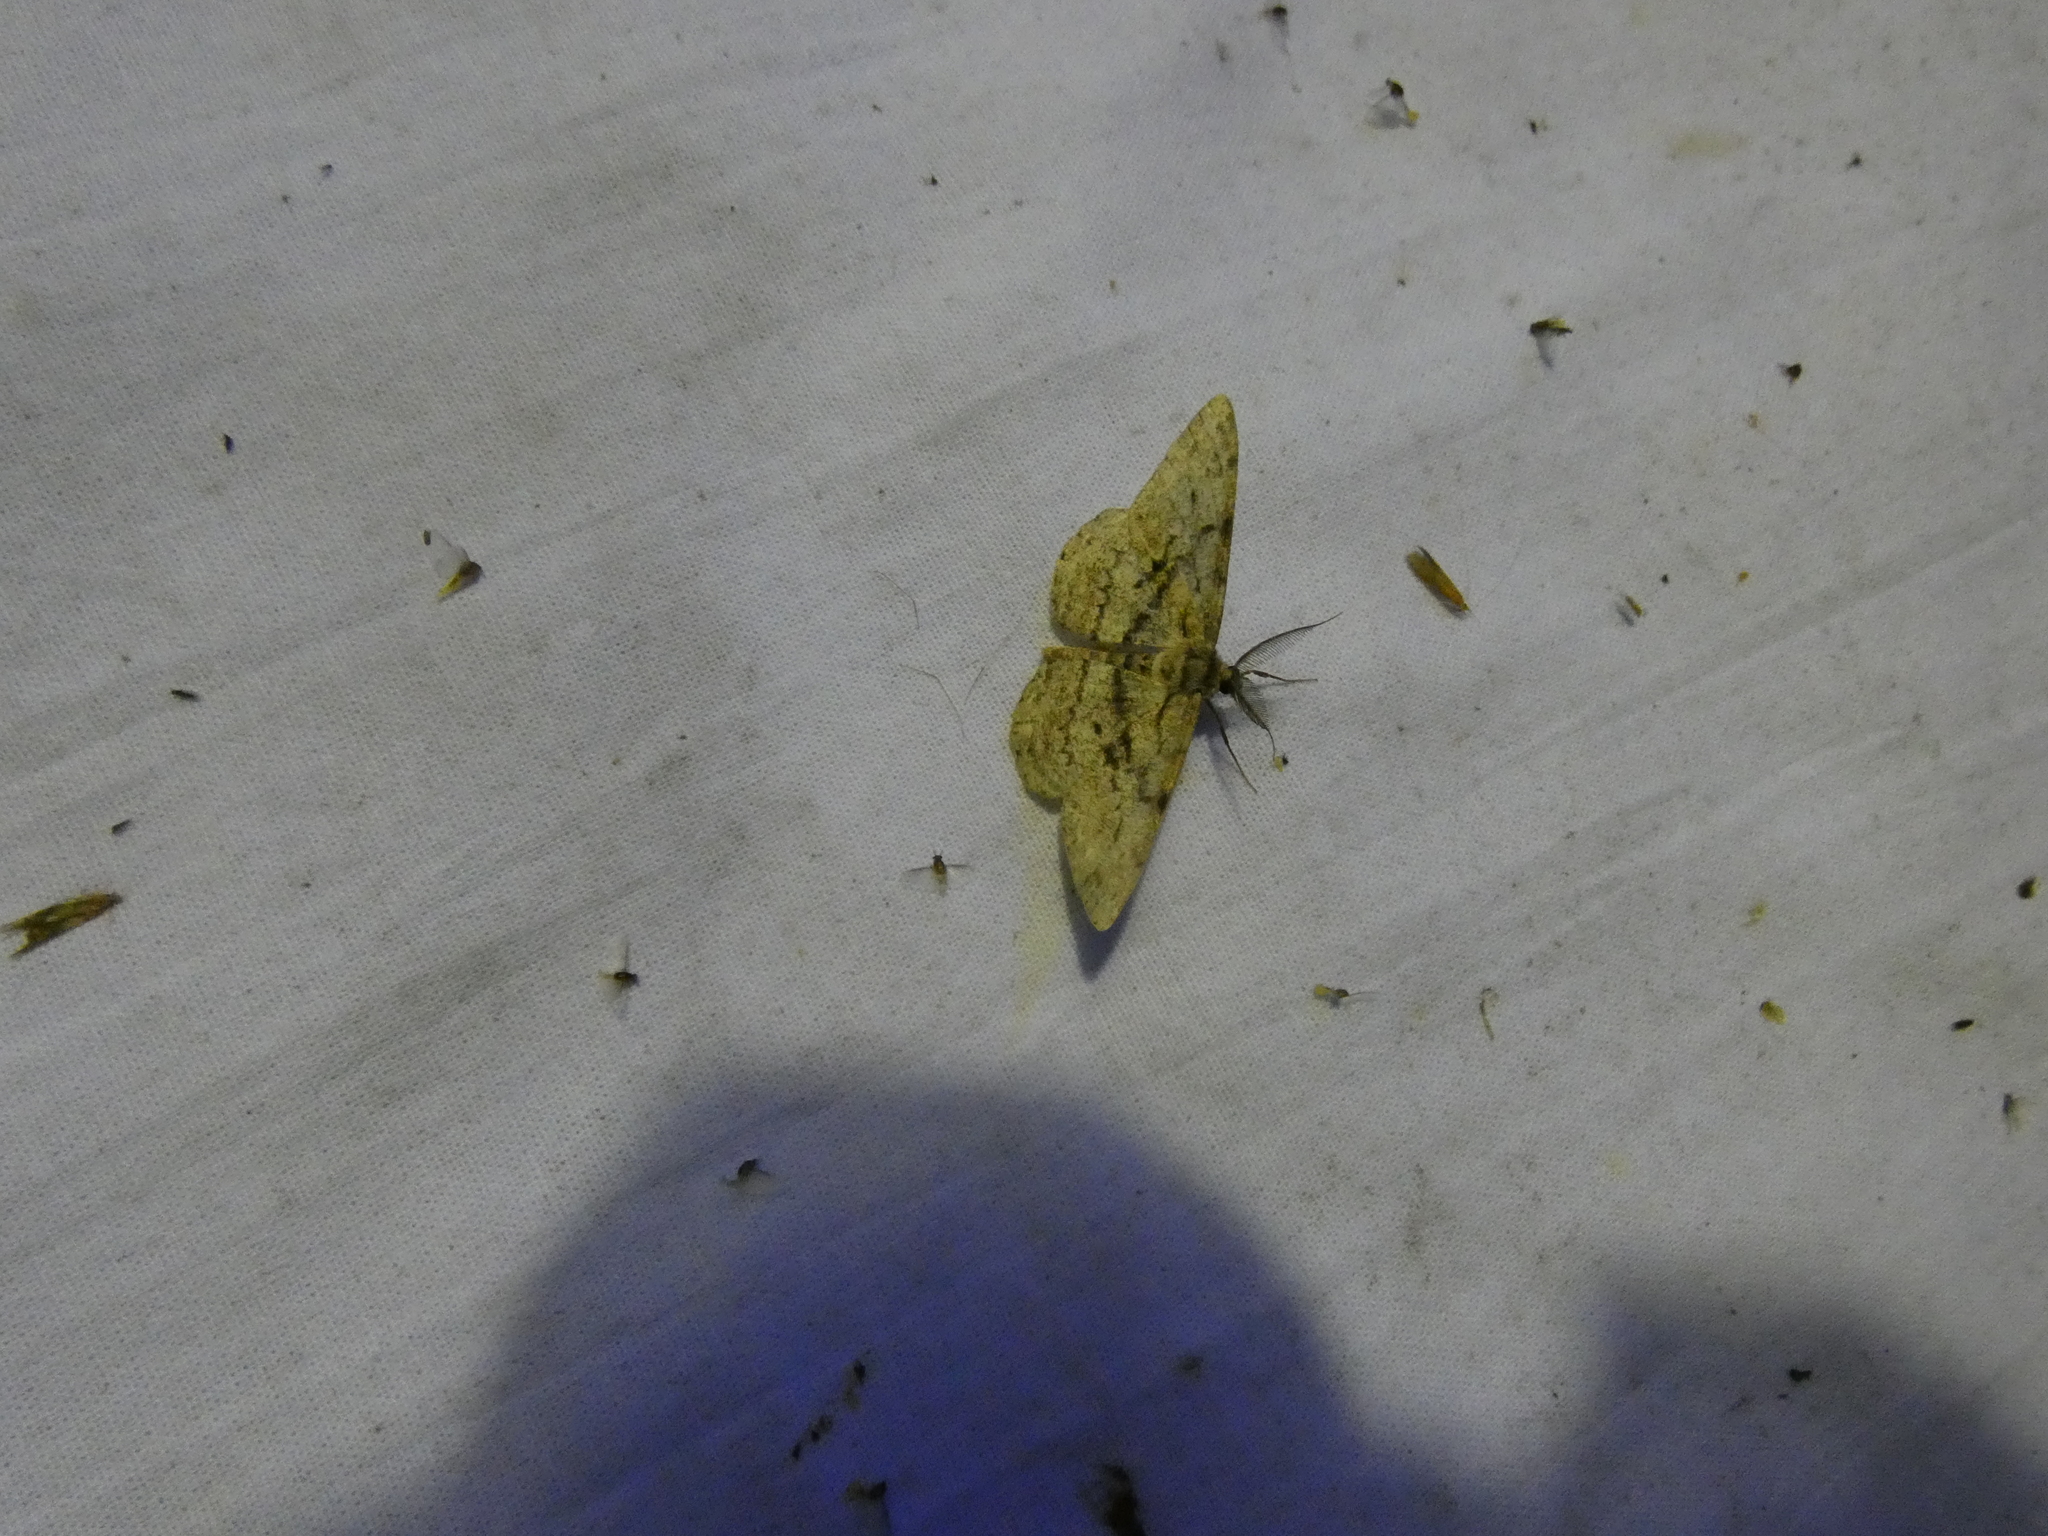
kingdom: Animalia
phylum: Arthropoda
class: Insecta
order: Lepidoptera
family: Geometridae
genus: Hypomecis
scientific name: Hypomecis roboraria
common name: Great oak beauty
